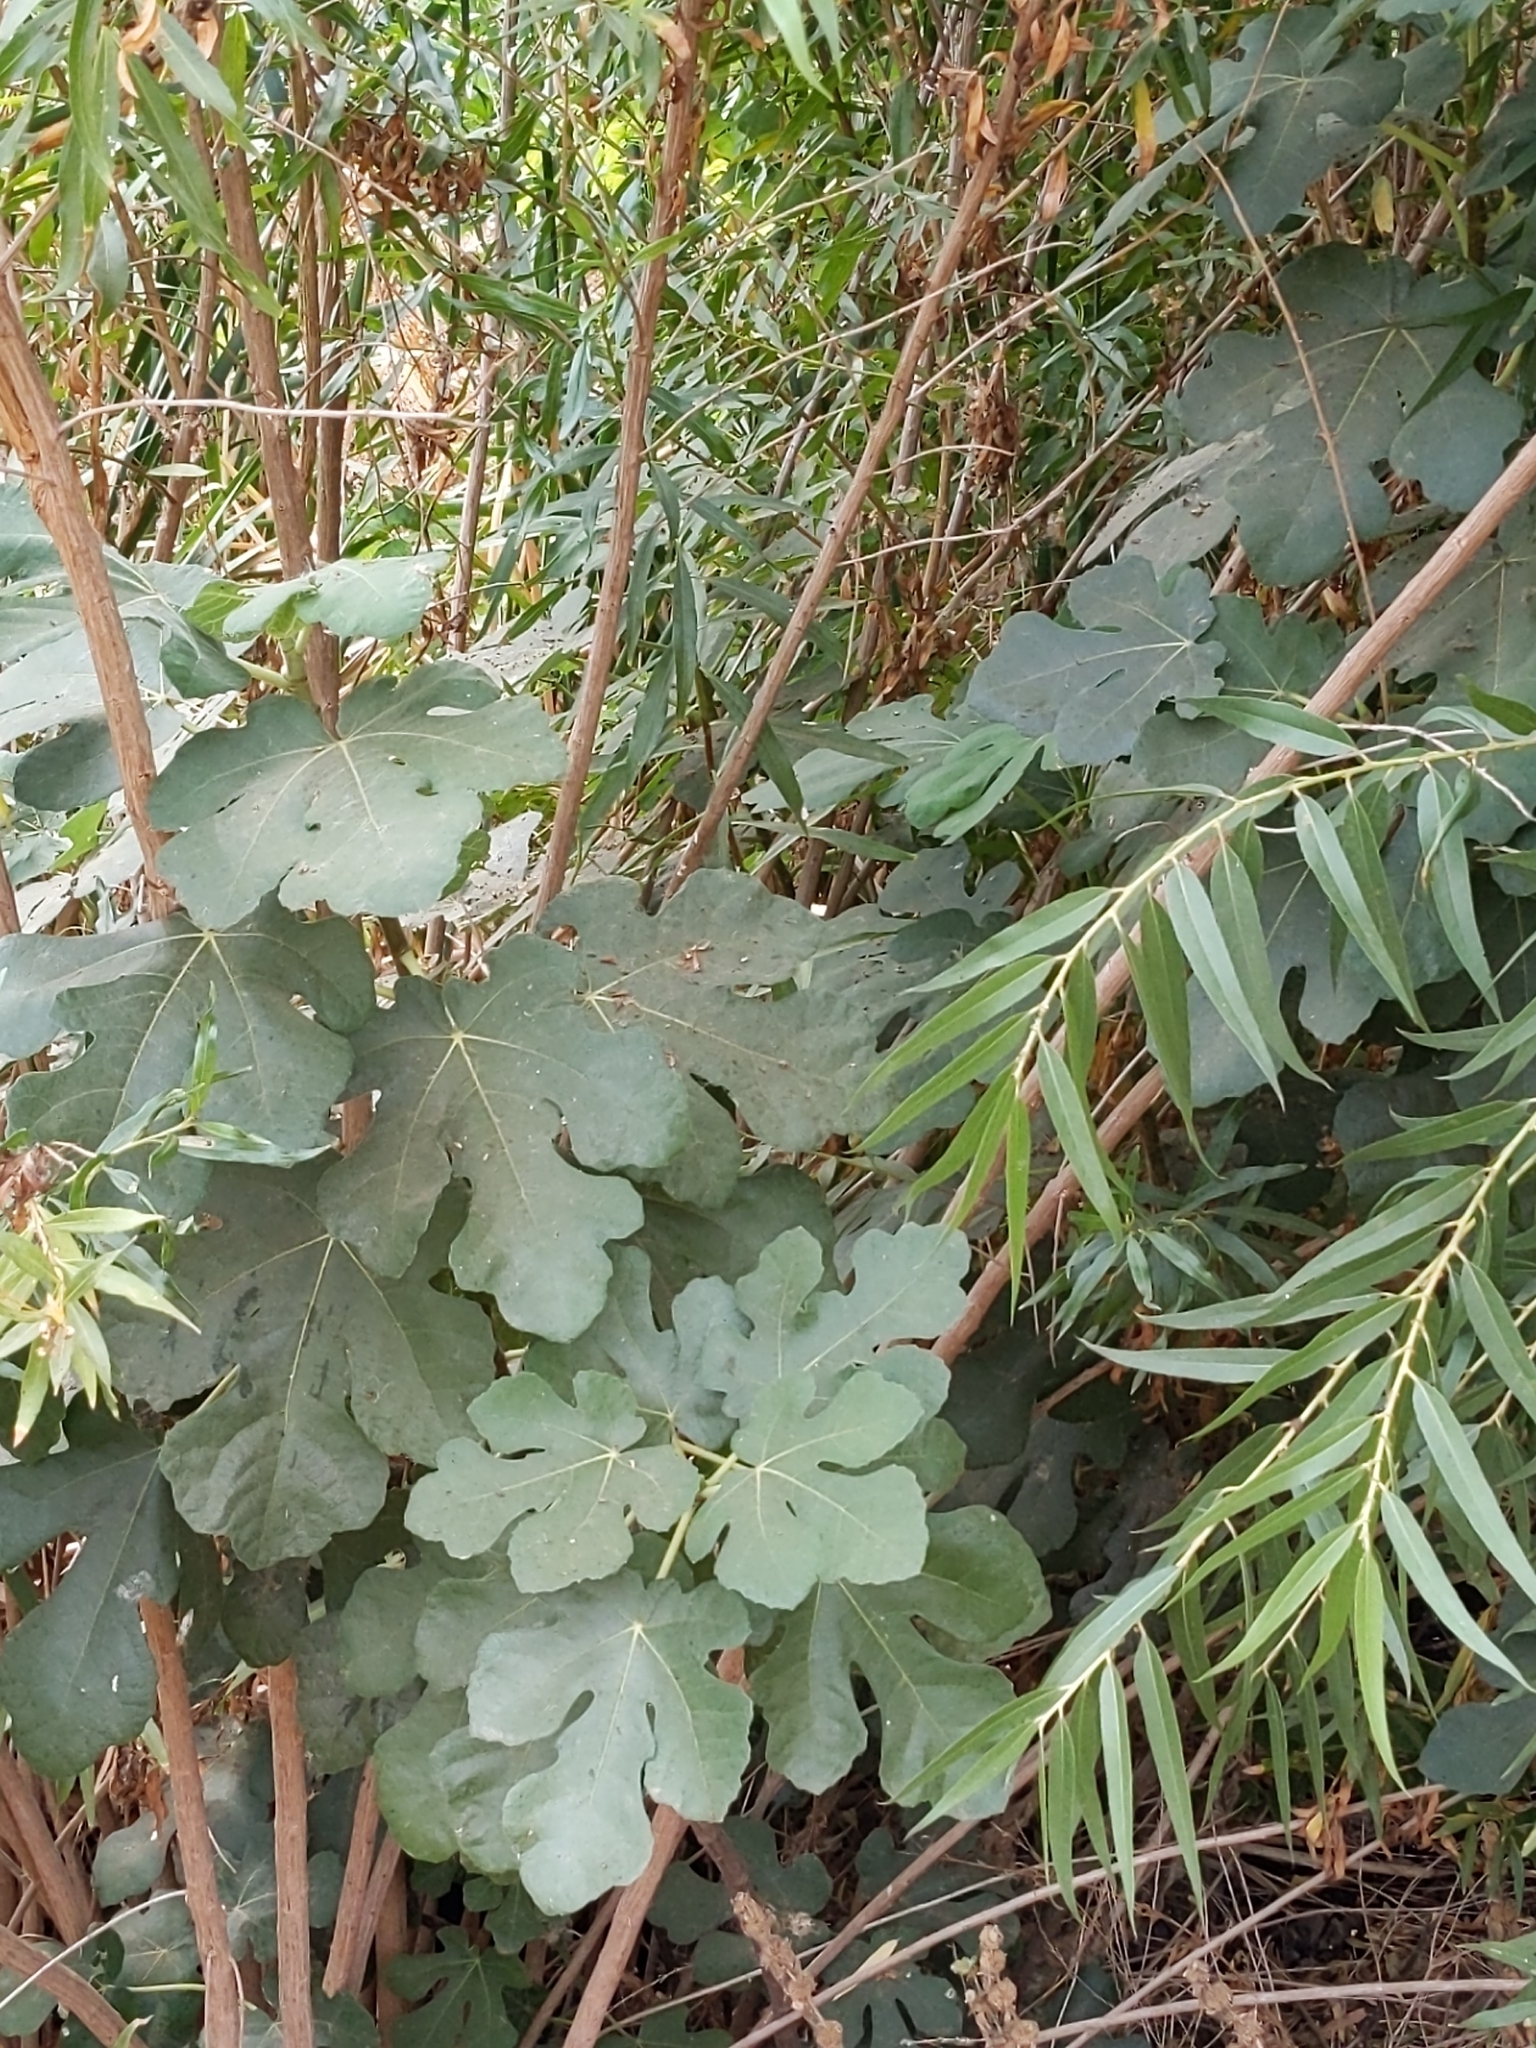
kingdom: Plantae
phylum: Tracheophyta
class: Magnoliopsida
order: Rosales
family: Moraceae
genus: Ficus
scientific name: Ficus carica
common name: Fig
